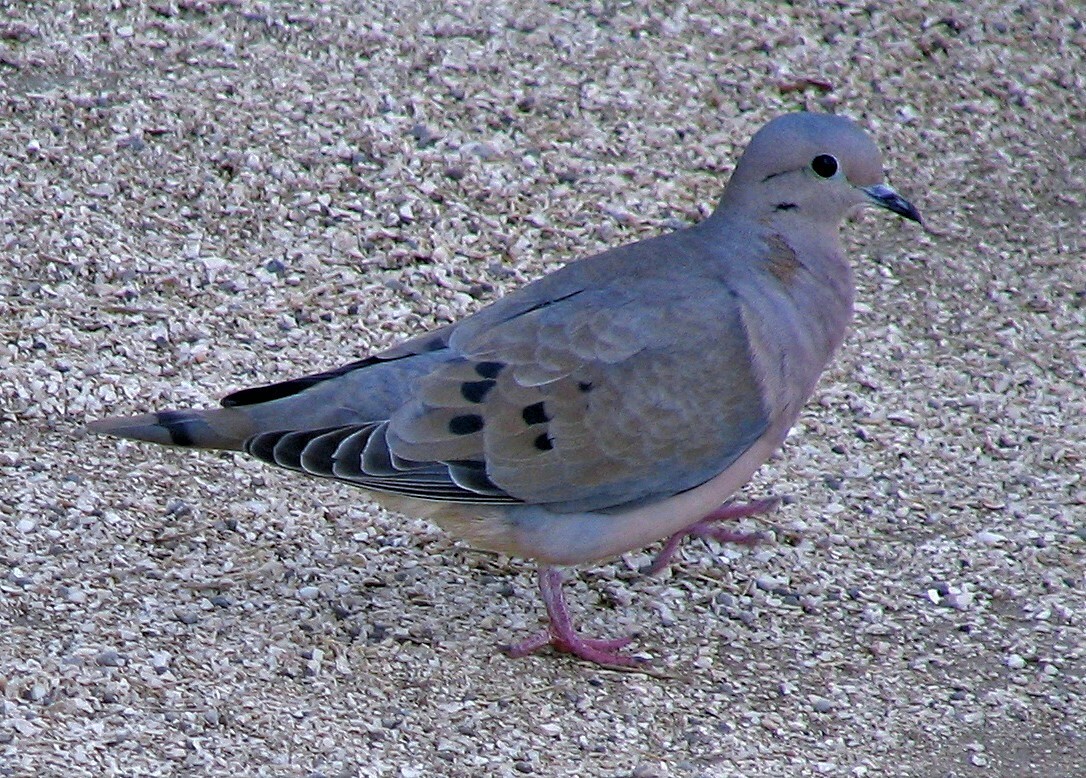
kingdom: Animalia
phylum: Chordata
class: Aves
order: Columbiformes
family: Columbidae
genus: Zenaida
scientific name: Zenaida auriculata
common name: Eared dove
